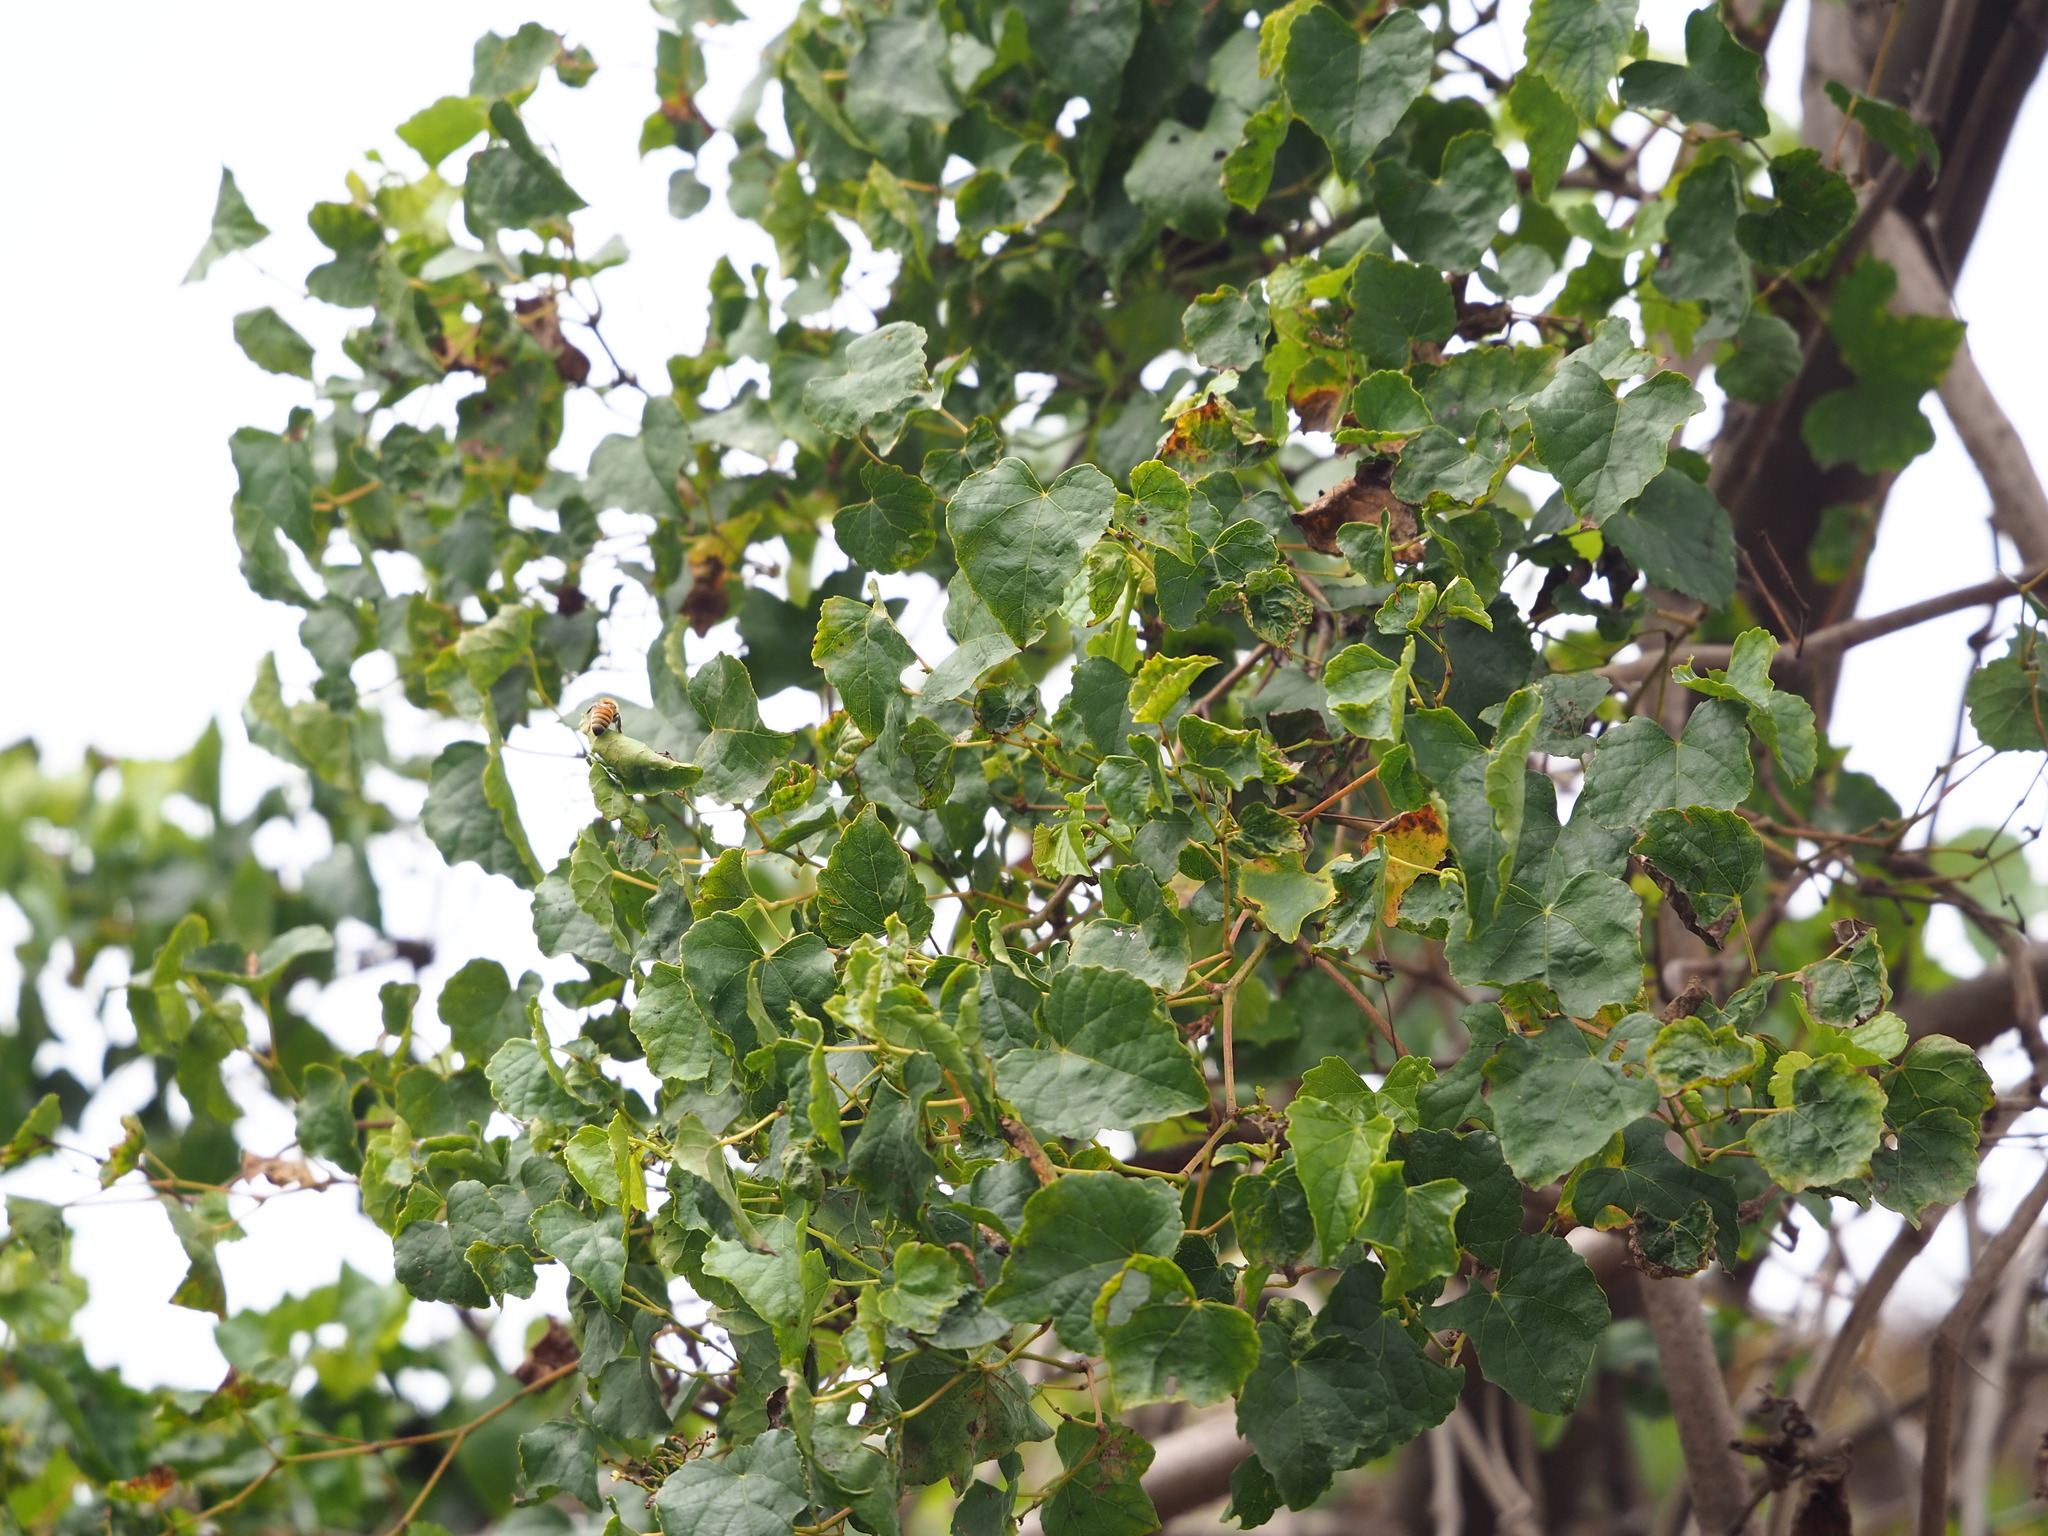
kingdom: Plantae
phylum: Tracheophyta
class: Magnoliopsida
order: Vitales
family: Vitaceae
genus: Ampelopsis
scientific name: Ampelopsis glandulosa
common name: Amur peppervine
